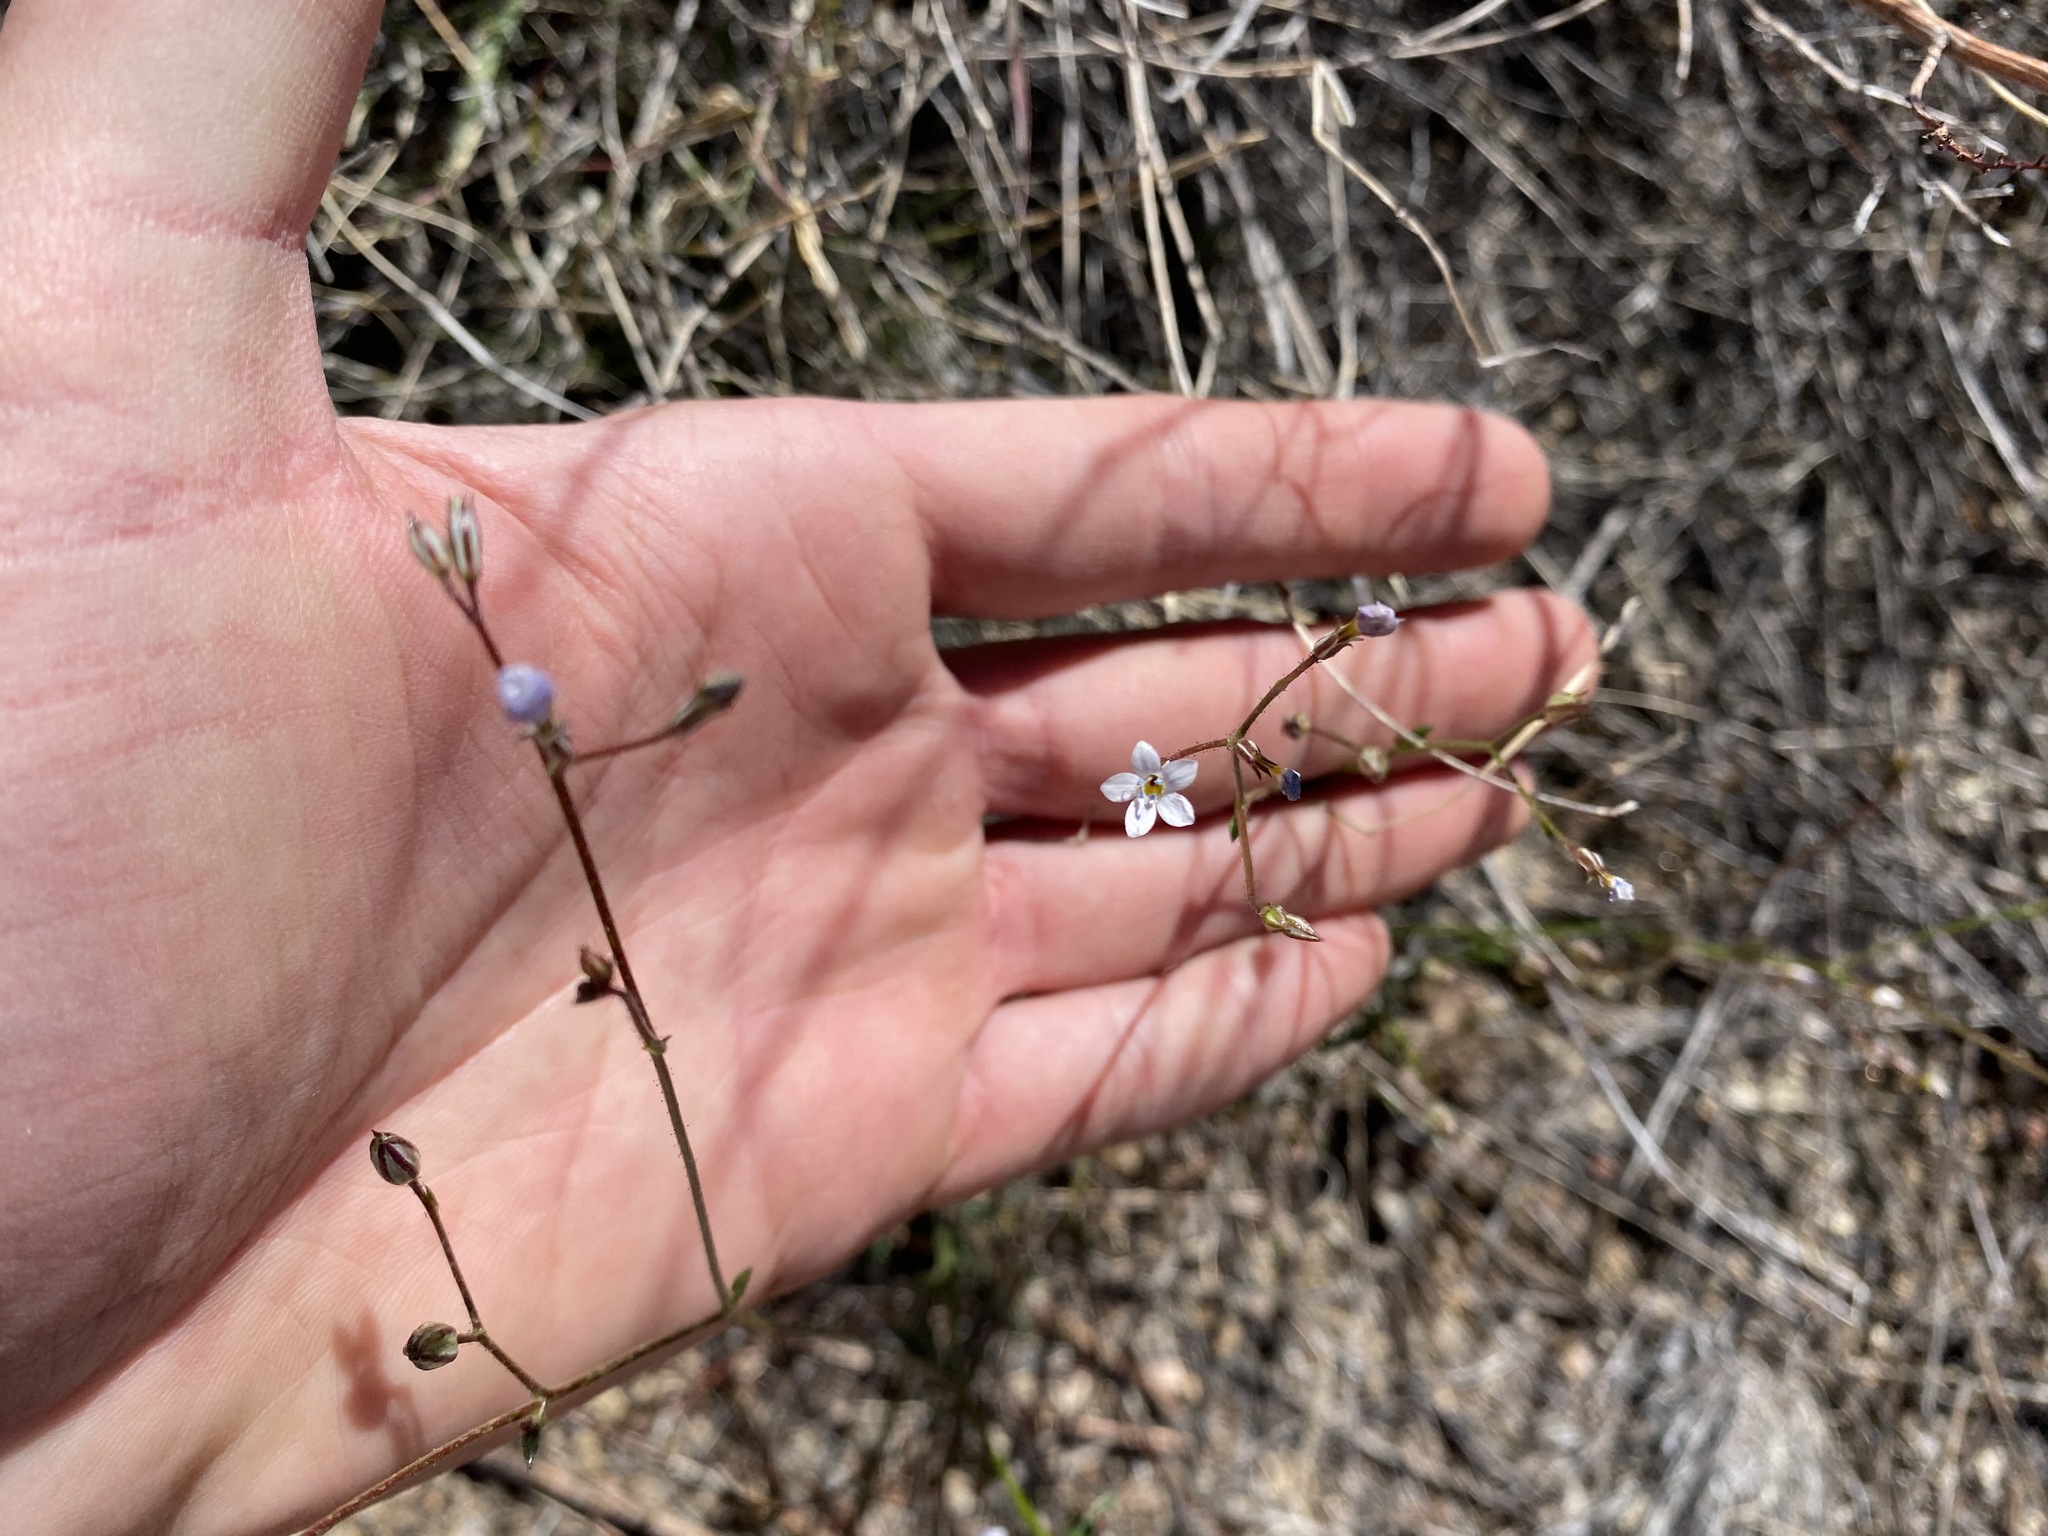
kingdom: Plantae
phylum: Tracheophyta
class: Magnoliopsida
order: Ericales
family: Polemoniaceae
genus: Gilia
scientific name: Gilia clokeyi
